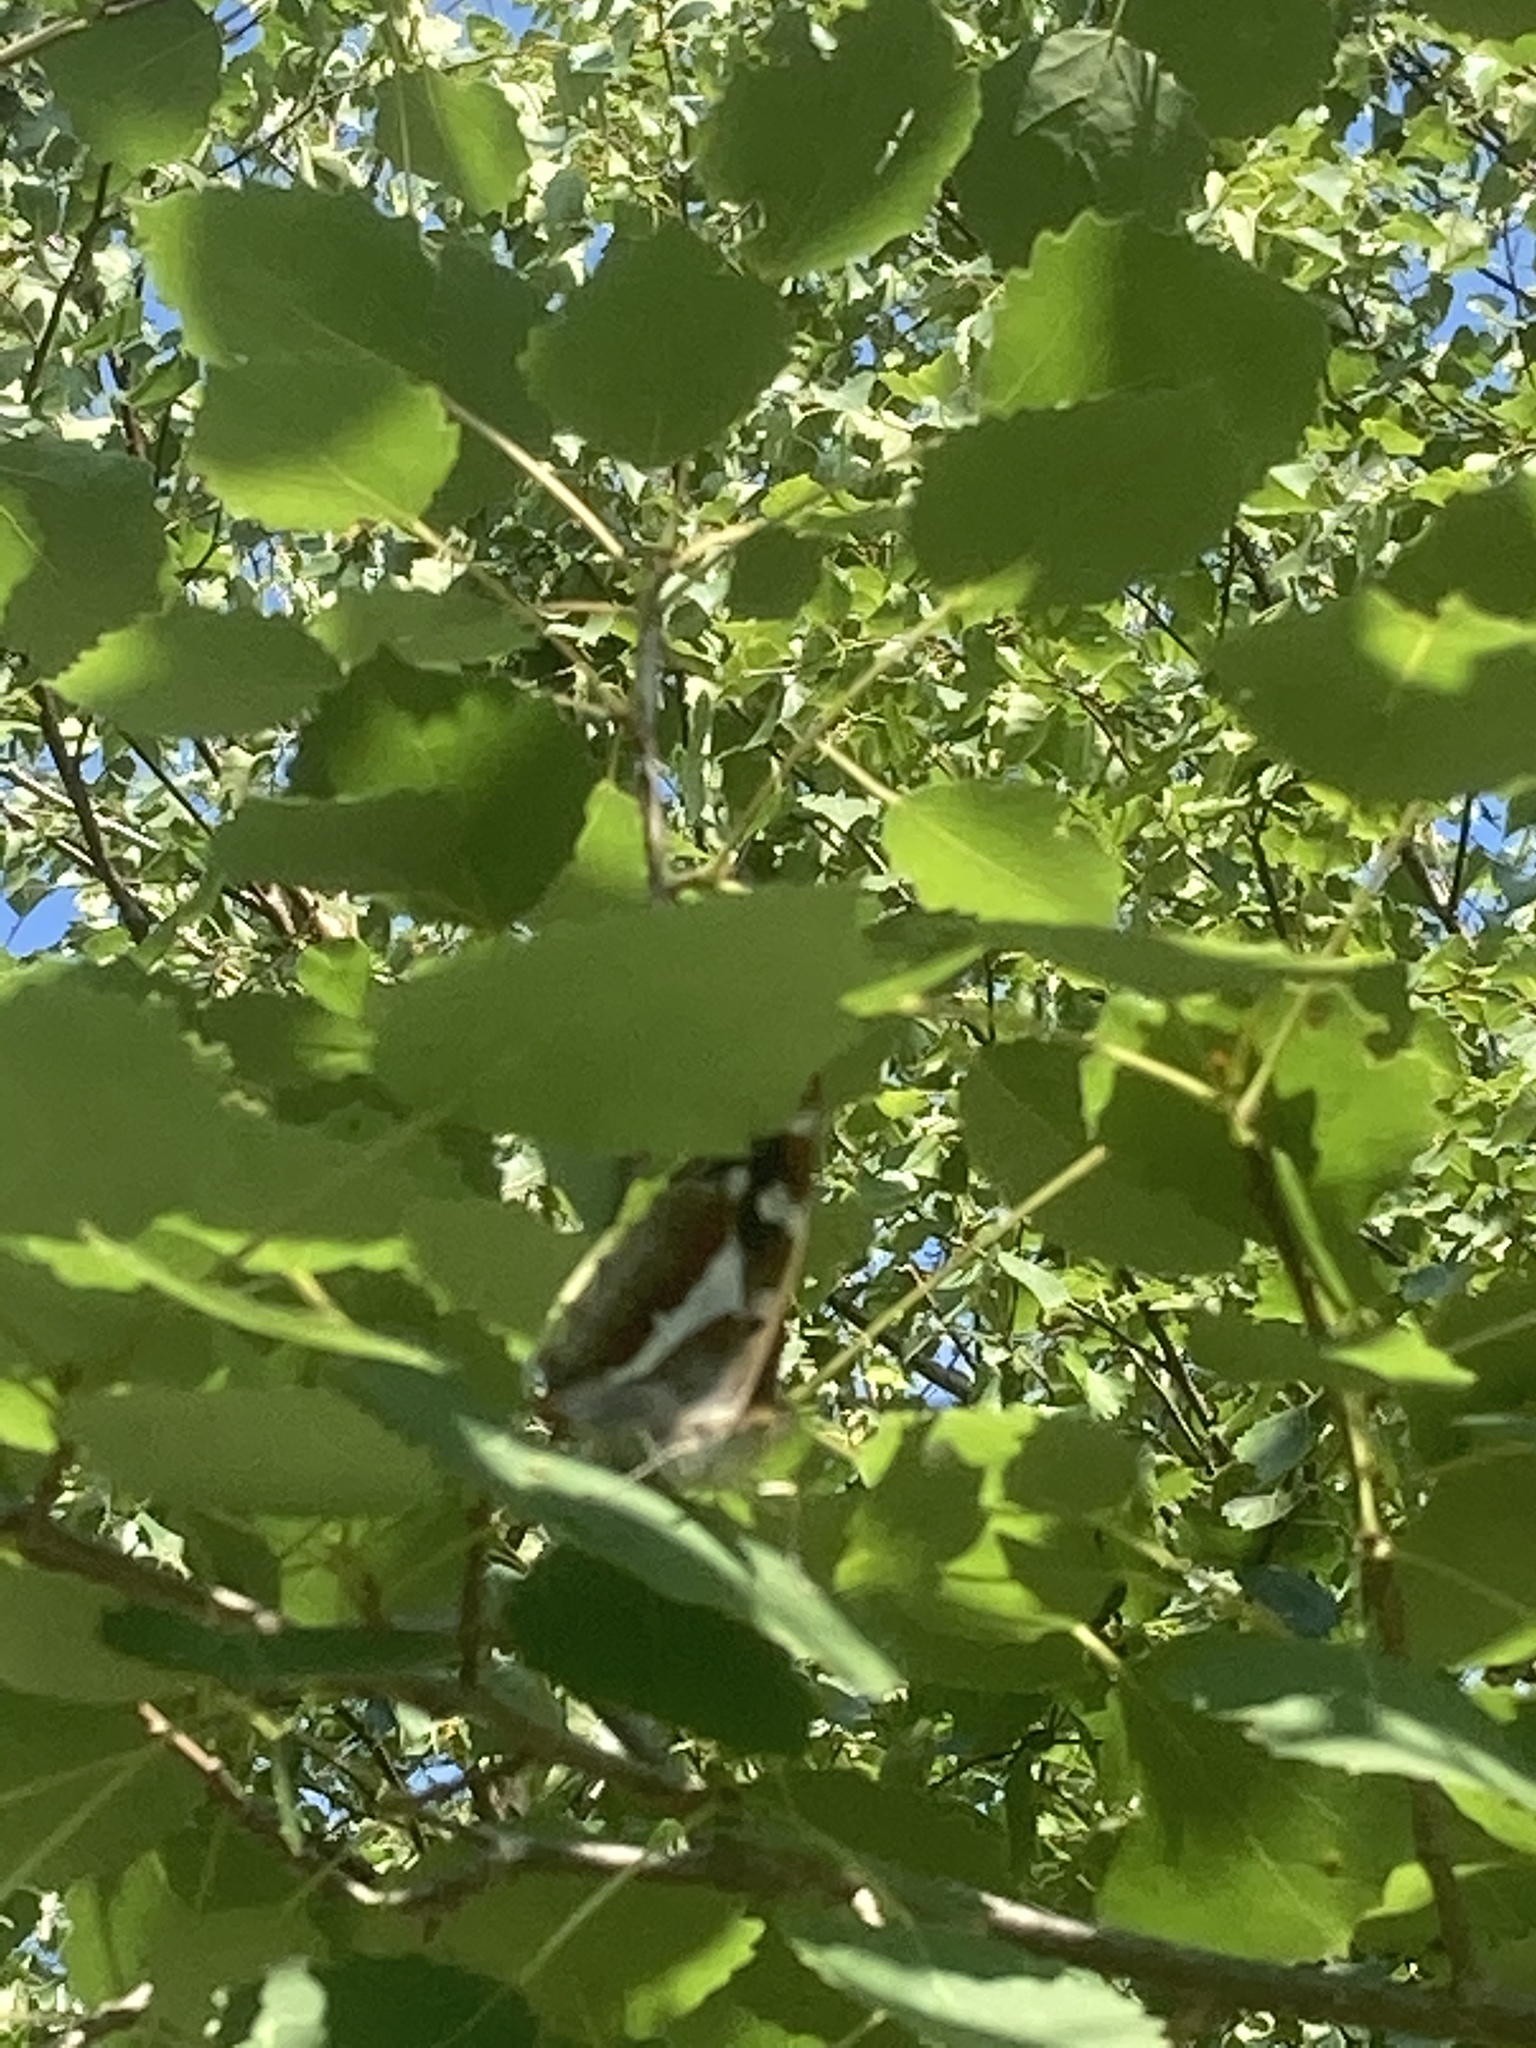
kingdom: Animalia
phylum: Arthropoda
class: Insecta
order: Lepidoptera
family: Nymphalidae
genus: Apatura
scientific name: Apatura iris
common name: Purple emperor
